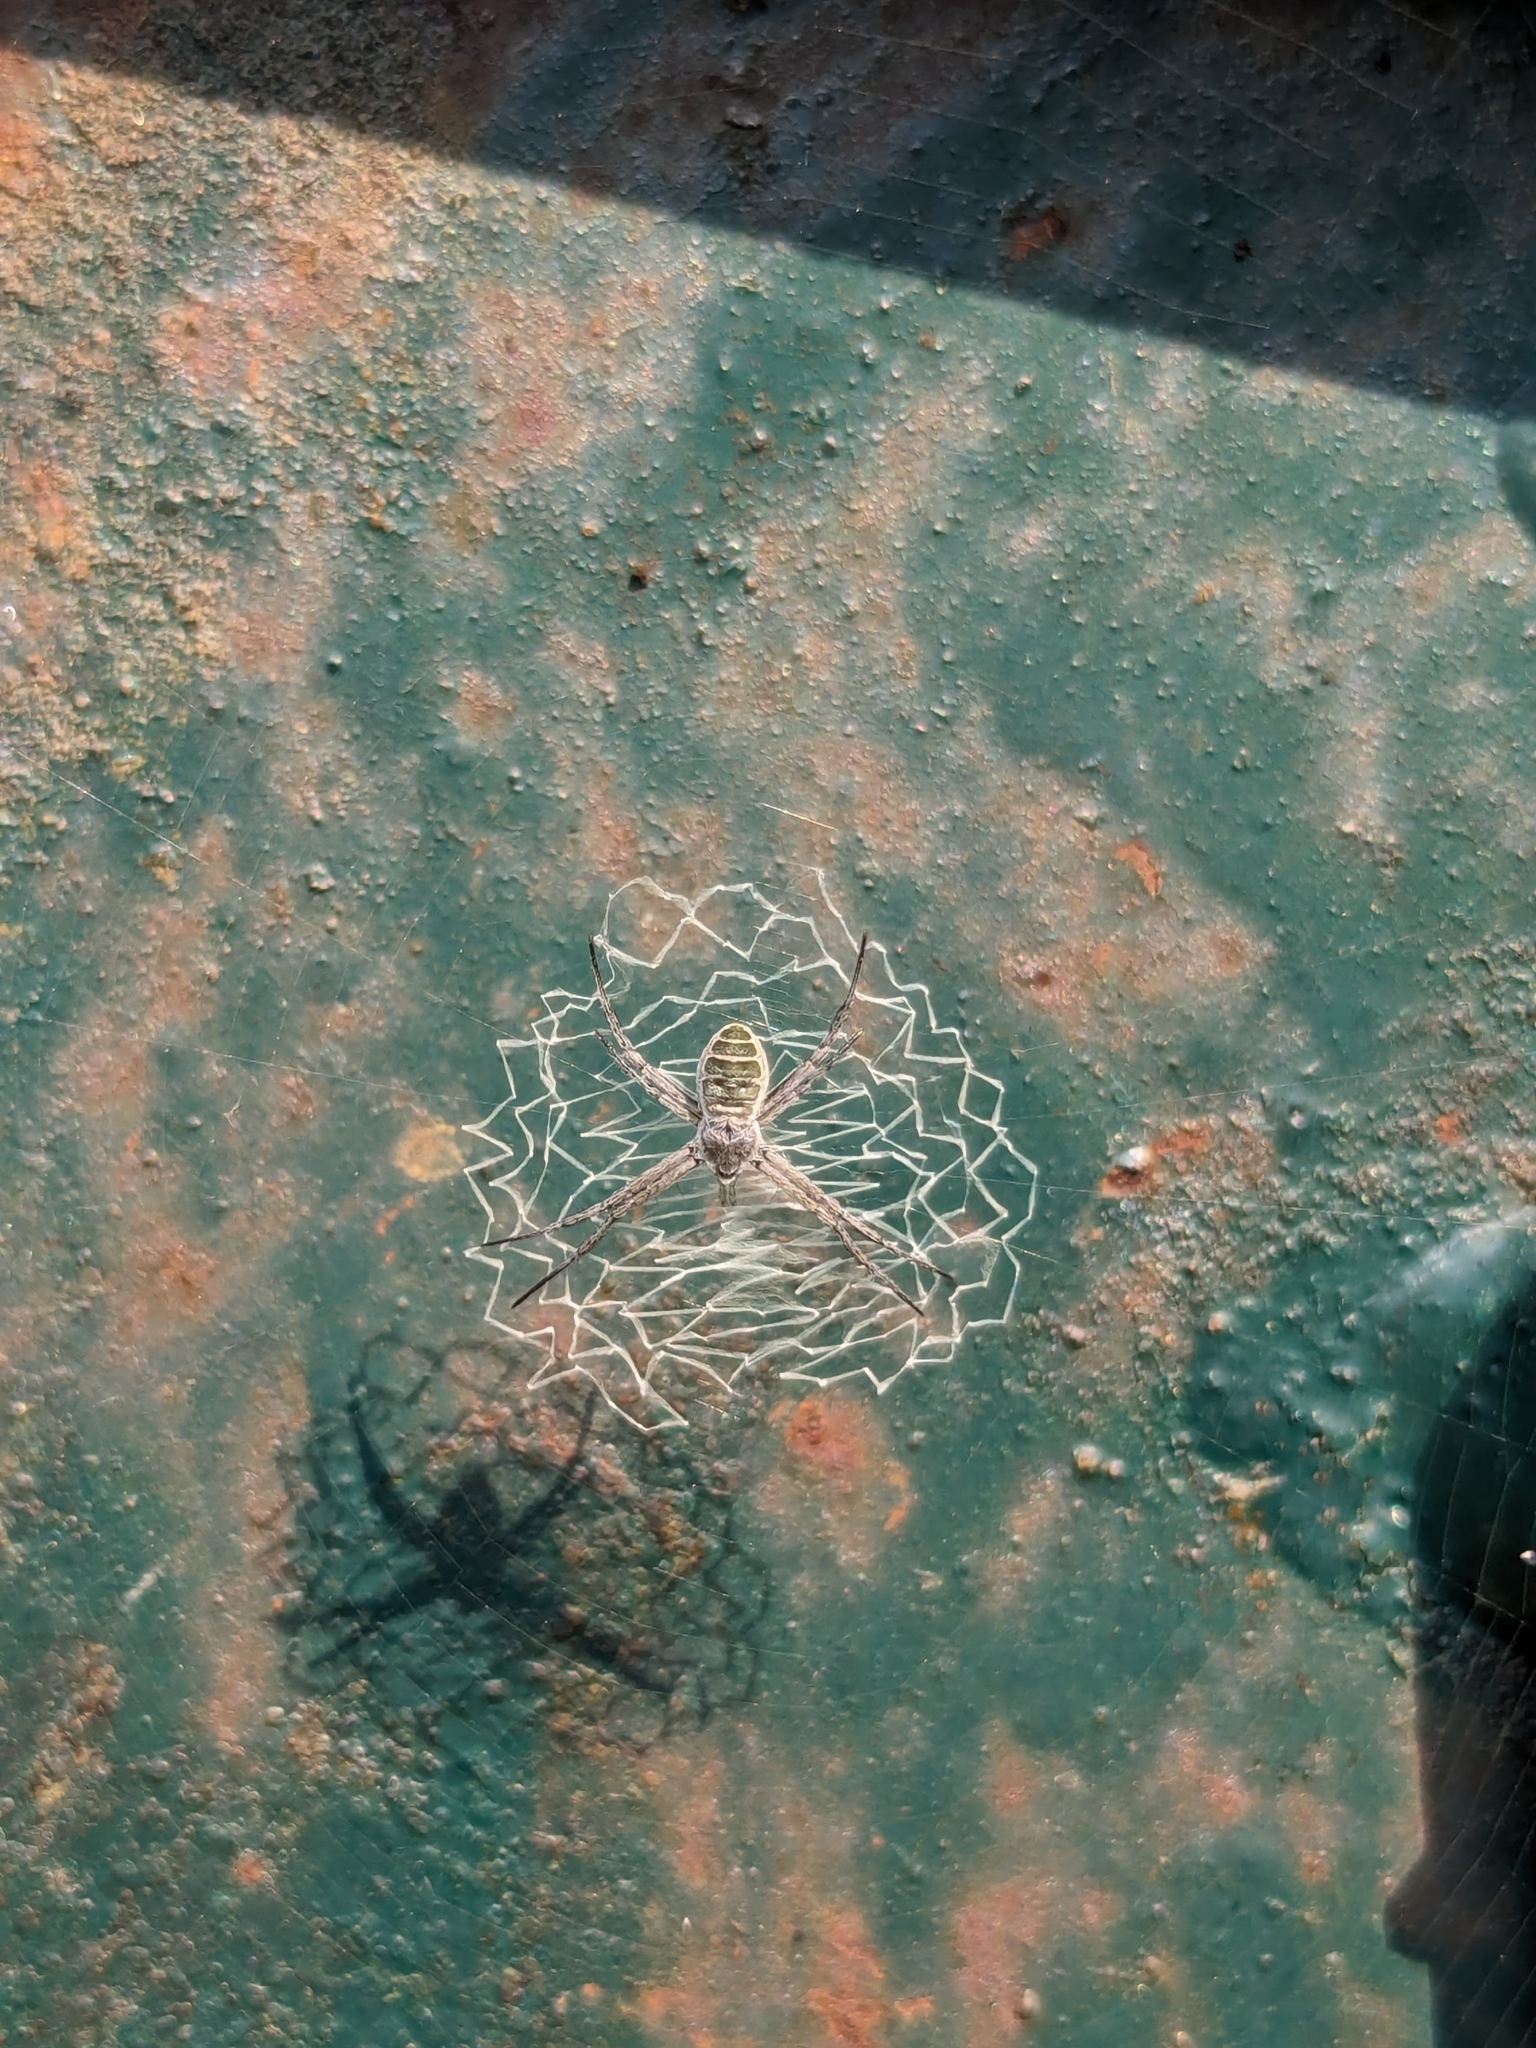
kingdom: Animalia
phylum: Arthropoda
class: Arachnida
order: Araneae
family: Araneidae
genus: Argiope
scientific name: Argiope chloreides
